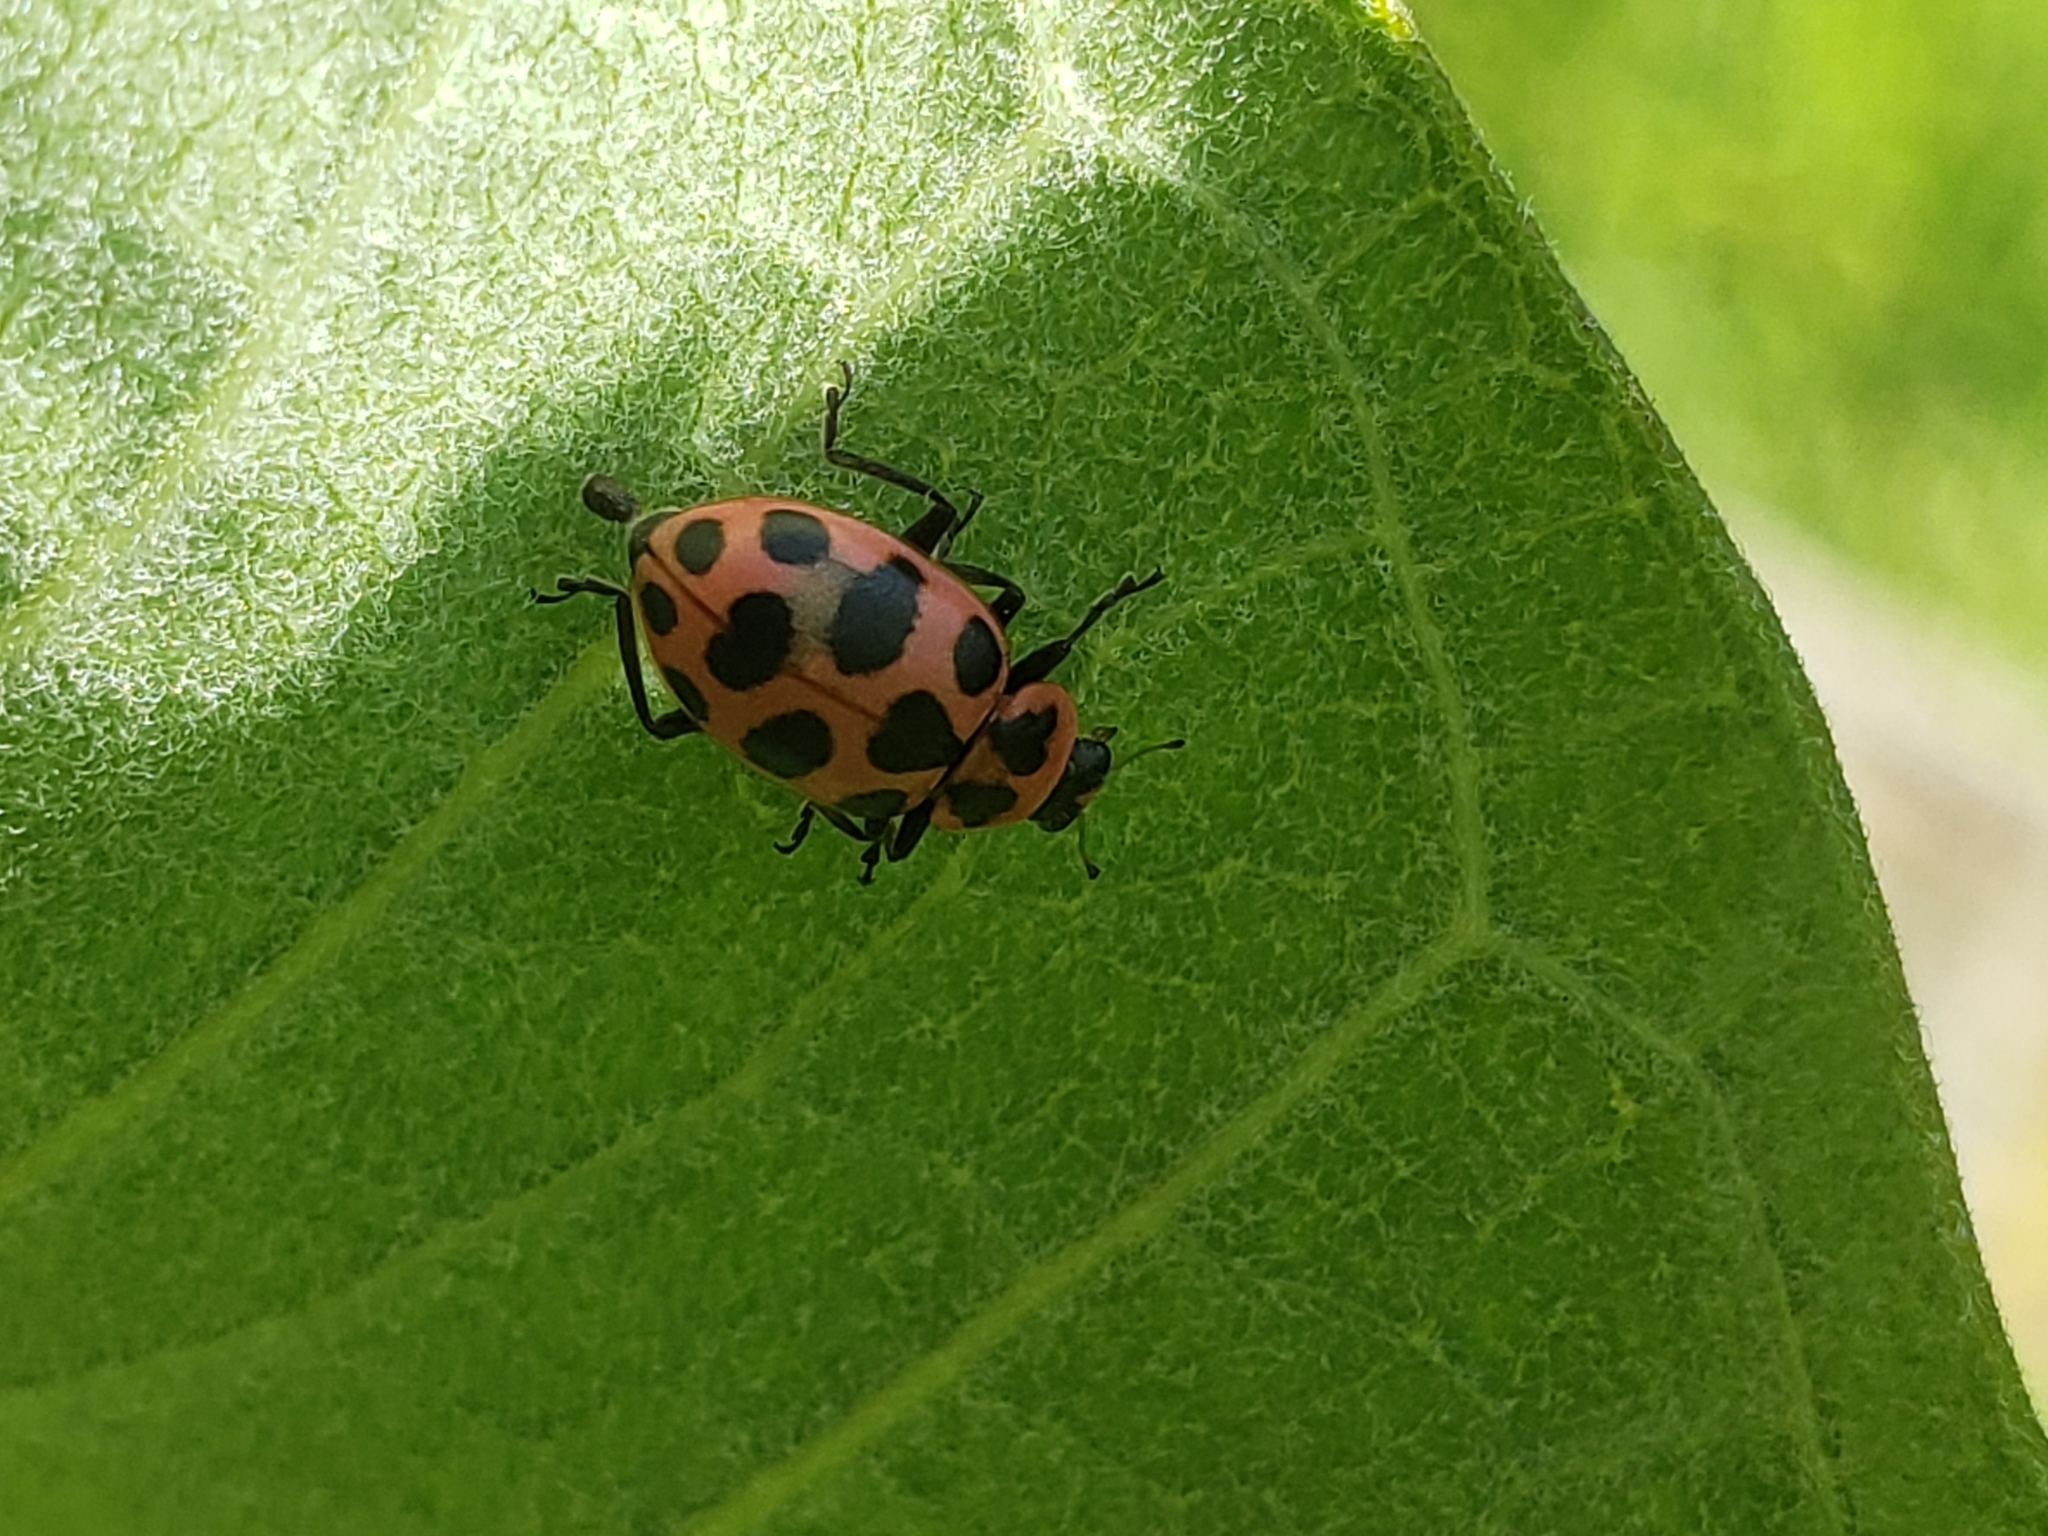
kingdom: Animalia
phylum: Arthropoda
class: Insecta
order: Coleoptera
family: Coccinellidae
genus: Coleomegilla
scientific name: Coleomegilla maculata
